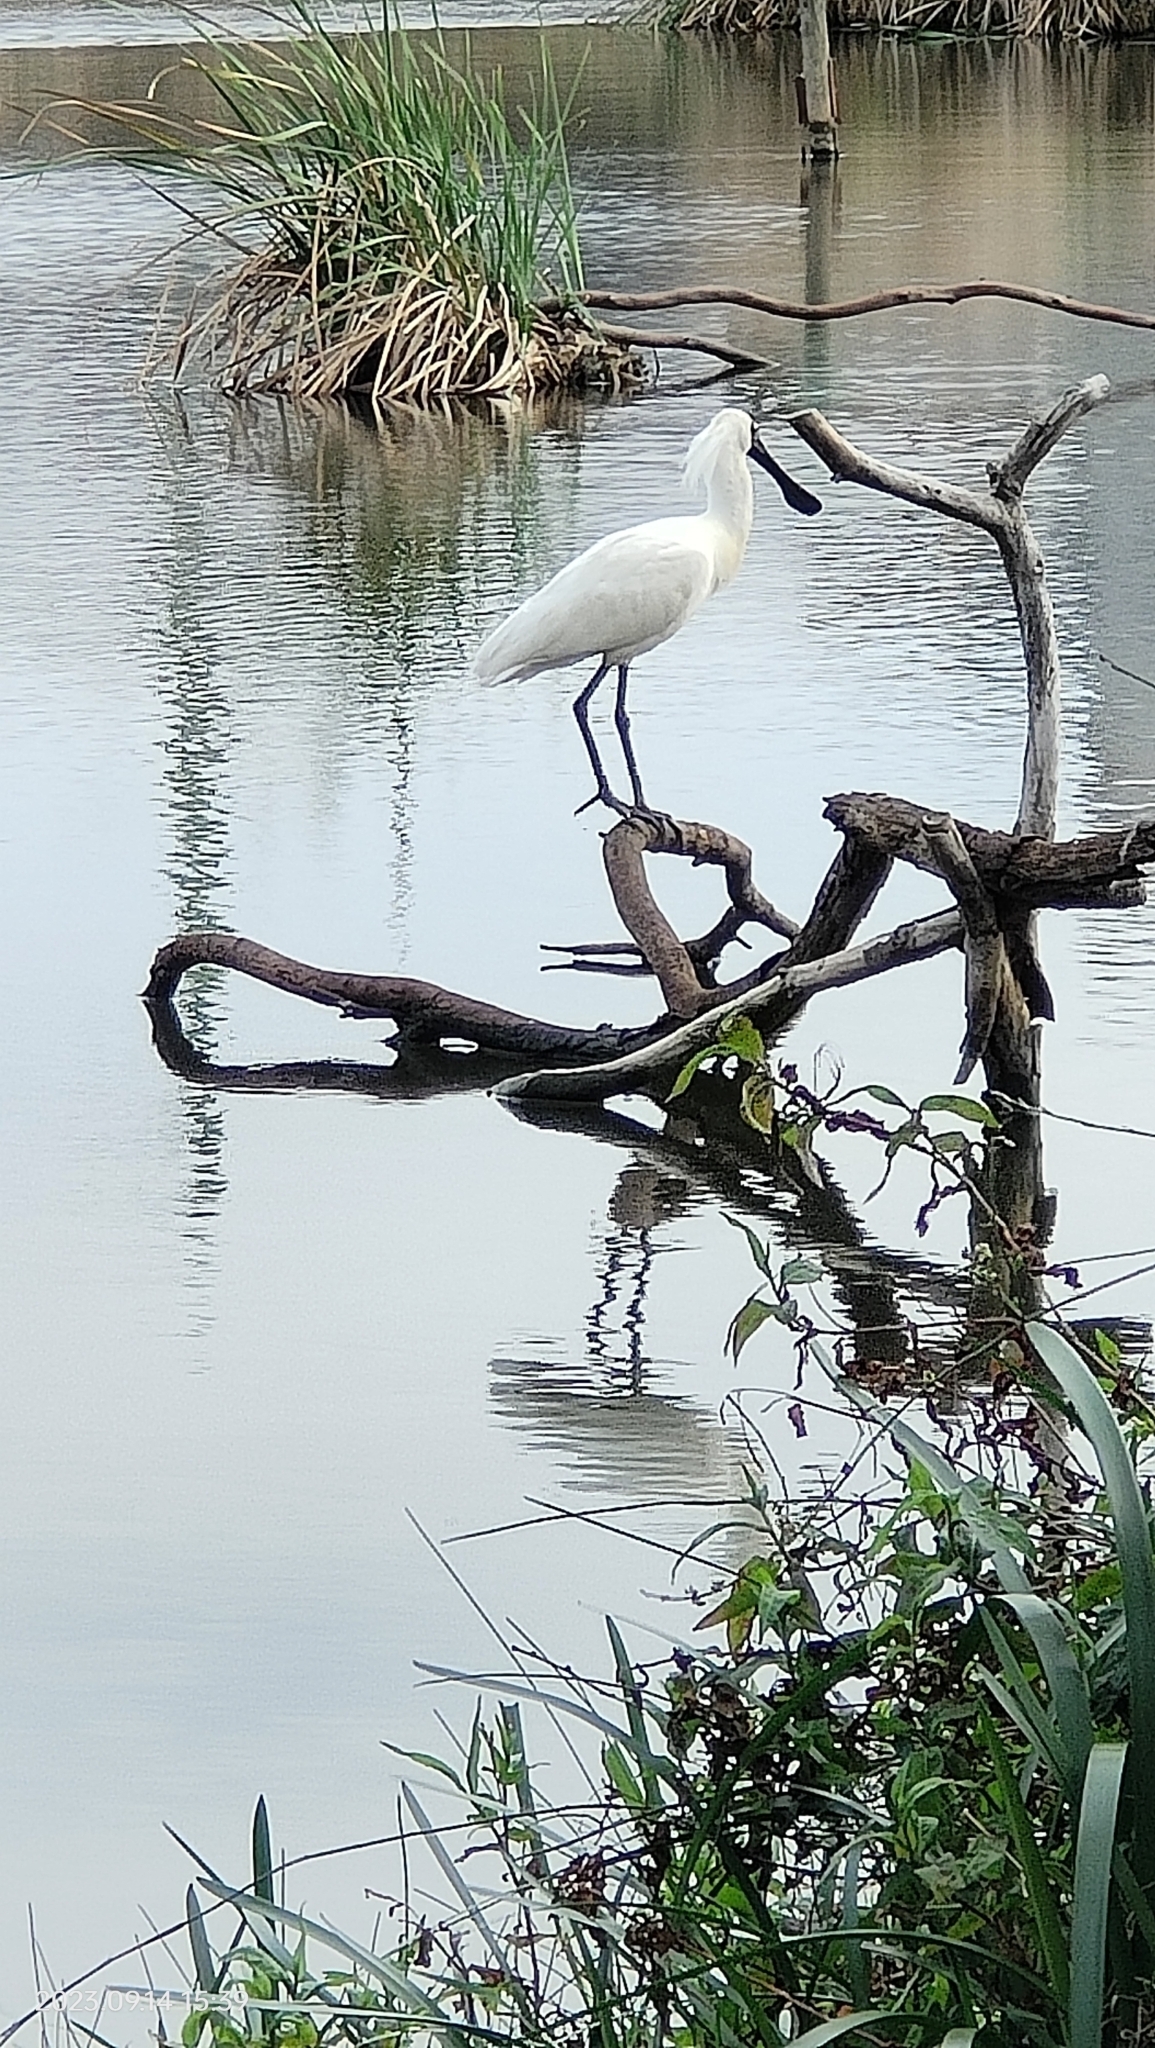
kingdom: Animalia
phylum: Chordata
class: Aves
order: Pelecaniformes
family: Threskiornithidae
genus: Platalea
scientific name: Platalea regia
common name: Royal spoonbill
